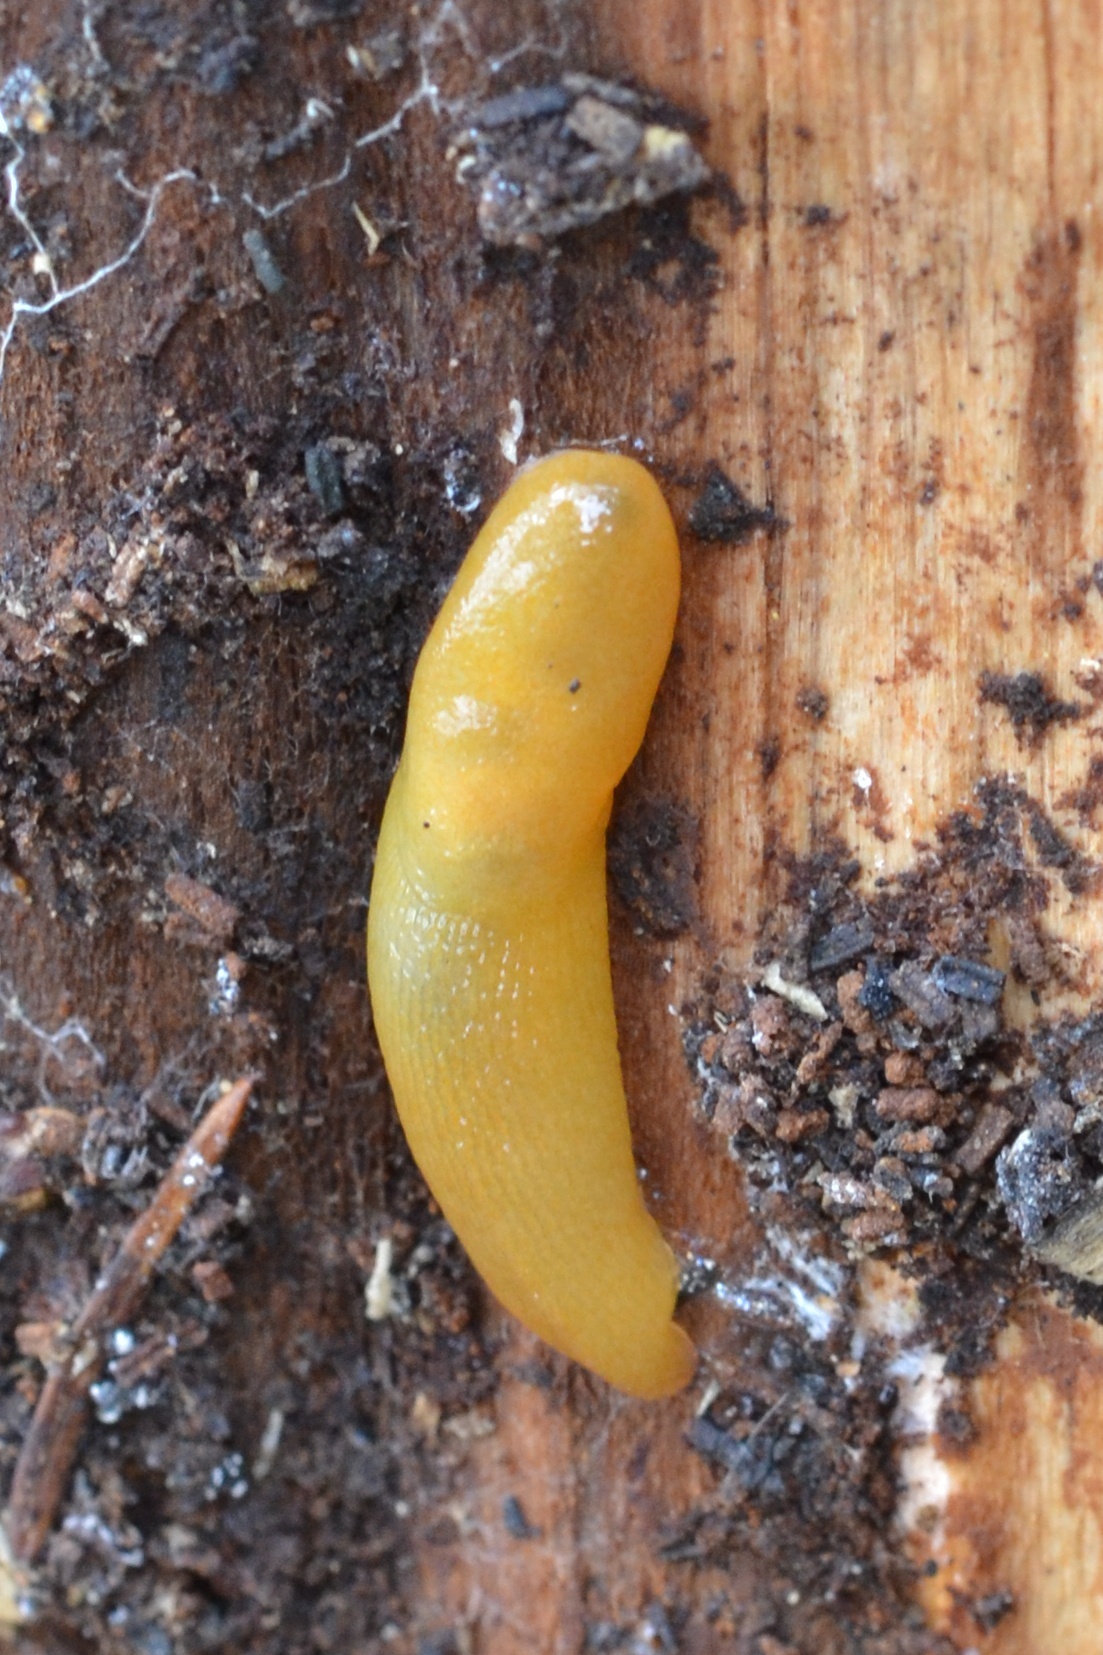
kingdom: Animalia
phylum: Mollusca
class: Gastropoda
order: Stylommatophora
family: Limacidae
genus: Malacolimax
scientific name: Malacolimax tenellus
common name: Lemon slug
